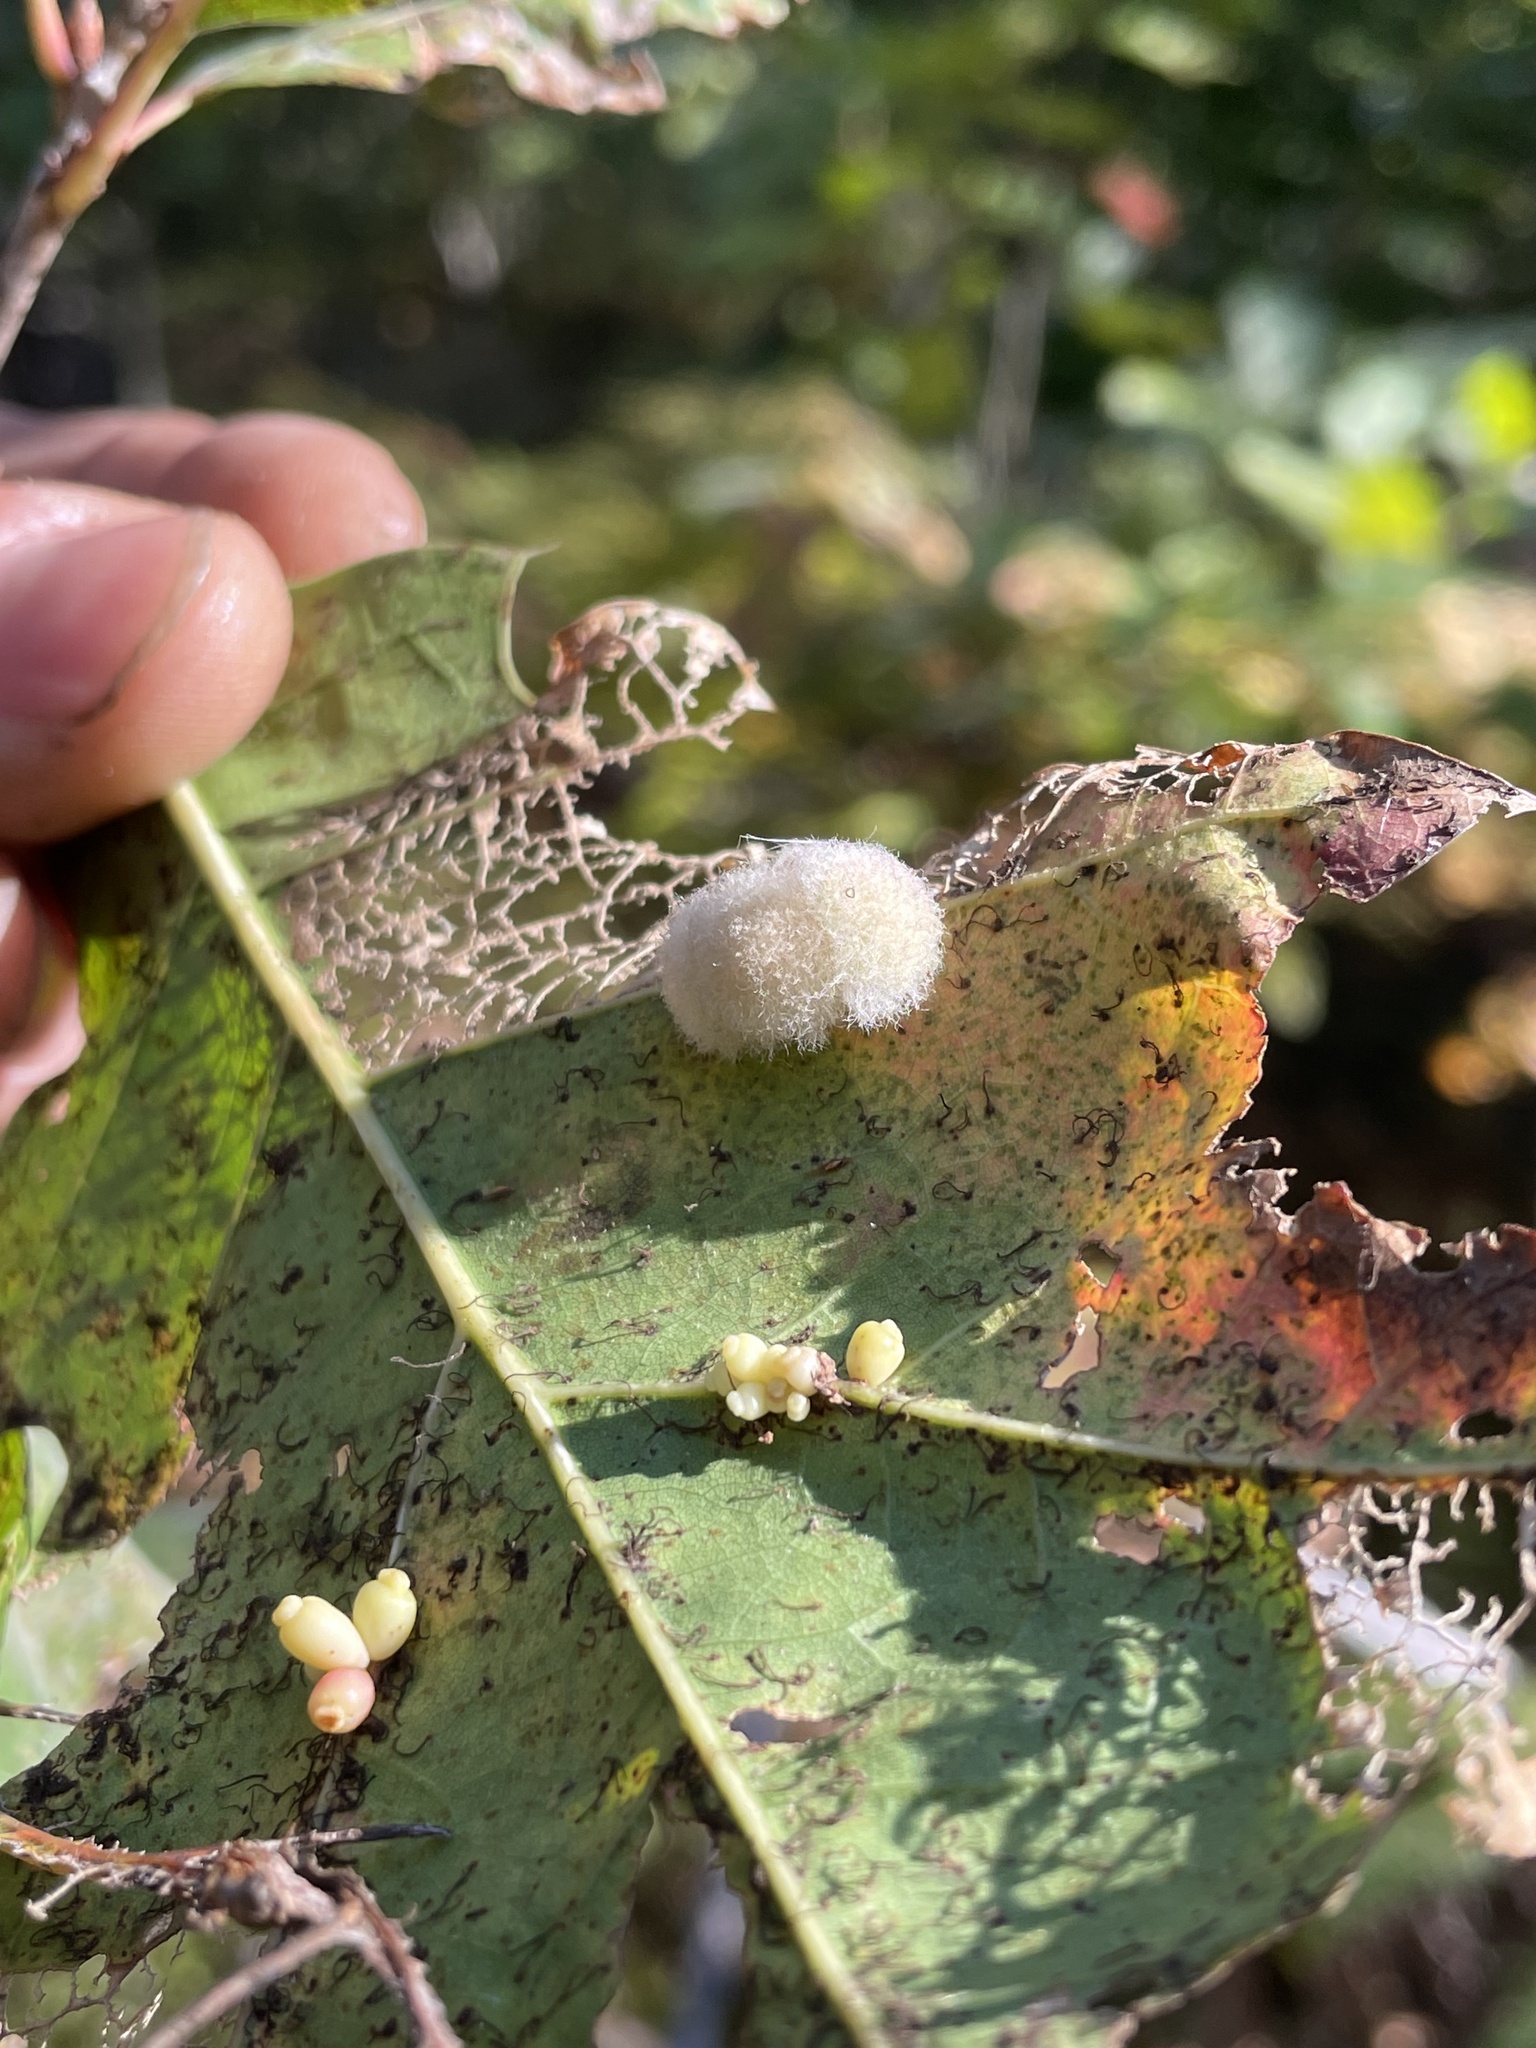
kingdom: Animalia
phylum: Arthropoda
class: Insecta
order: Hymenoptera
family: Cynipidae
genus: Callirhytis
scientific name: Callirhytis
